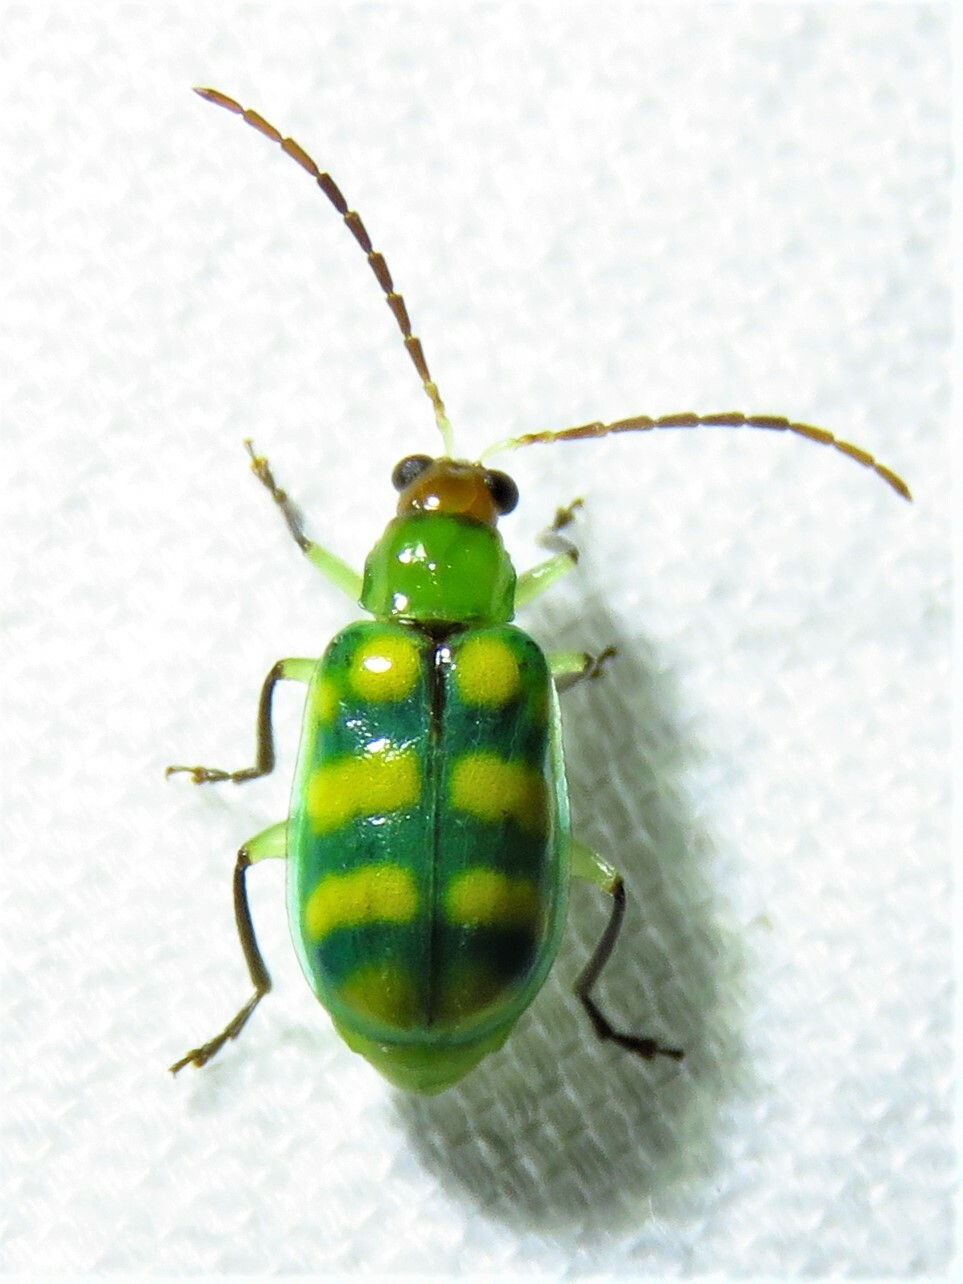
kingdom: Animalia
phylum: Arthropoda
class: Insecta
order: Coleoptera
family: Chrysomelidae
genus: Diabrotica
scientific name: Diabrotica balteata
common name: Leaf beetle
